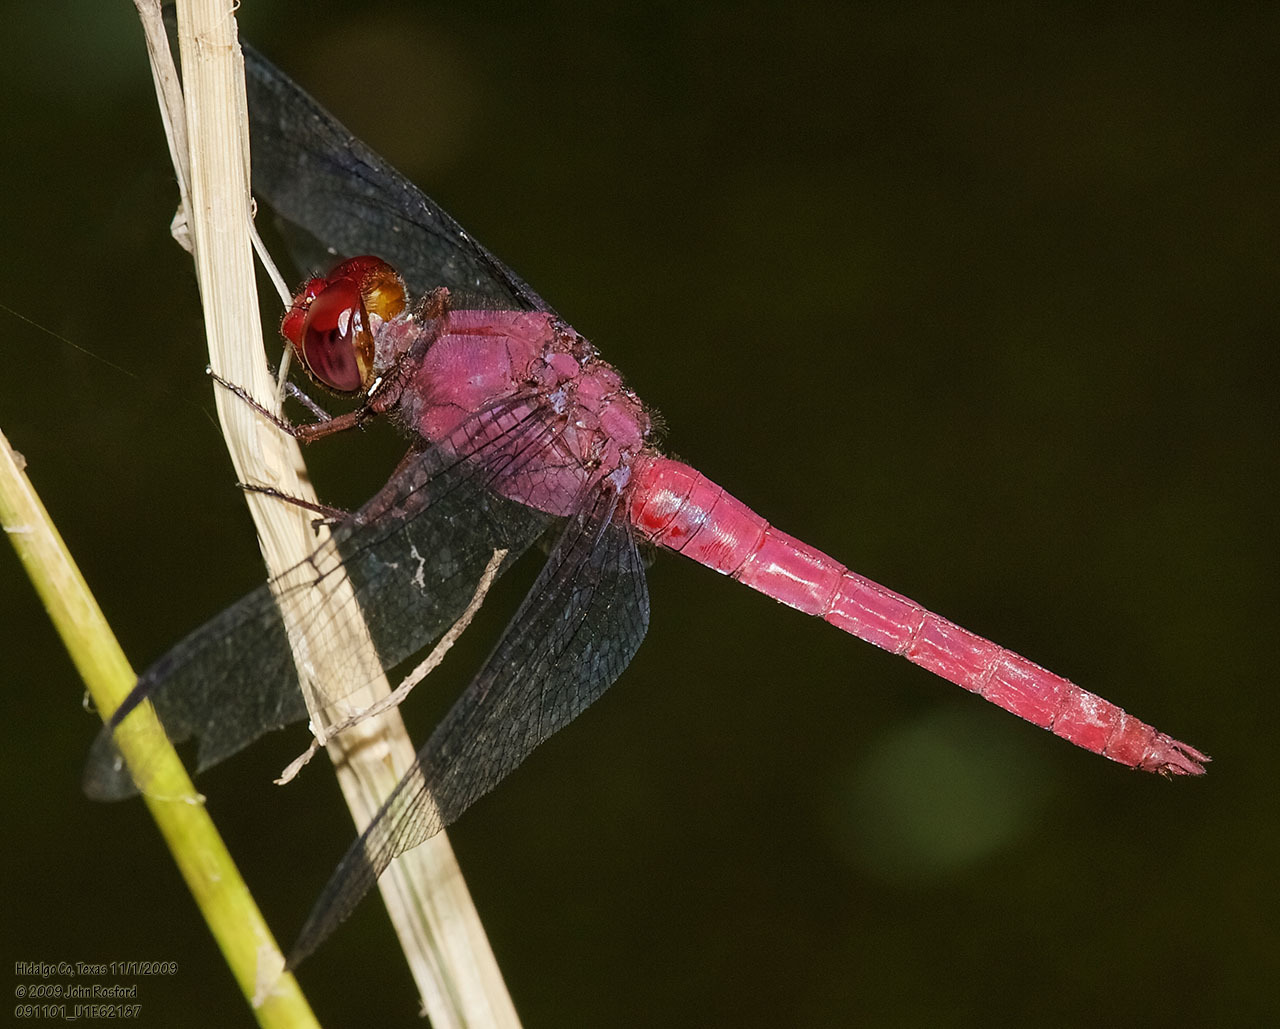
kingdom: Animalia
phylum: Arthropoda
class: Insecta
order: Odonata
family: Libellulidae
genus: Orthemis
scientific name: Orthemis discolor
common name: Carmine skimmer
